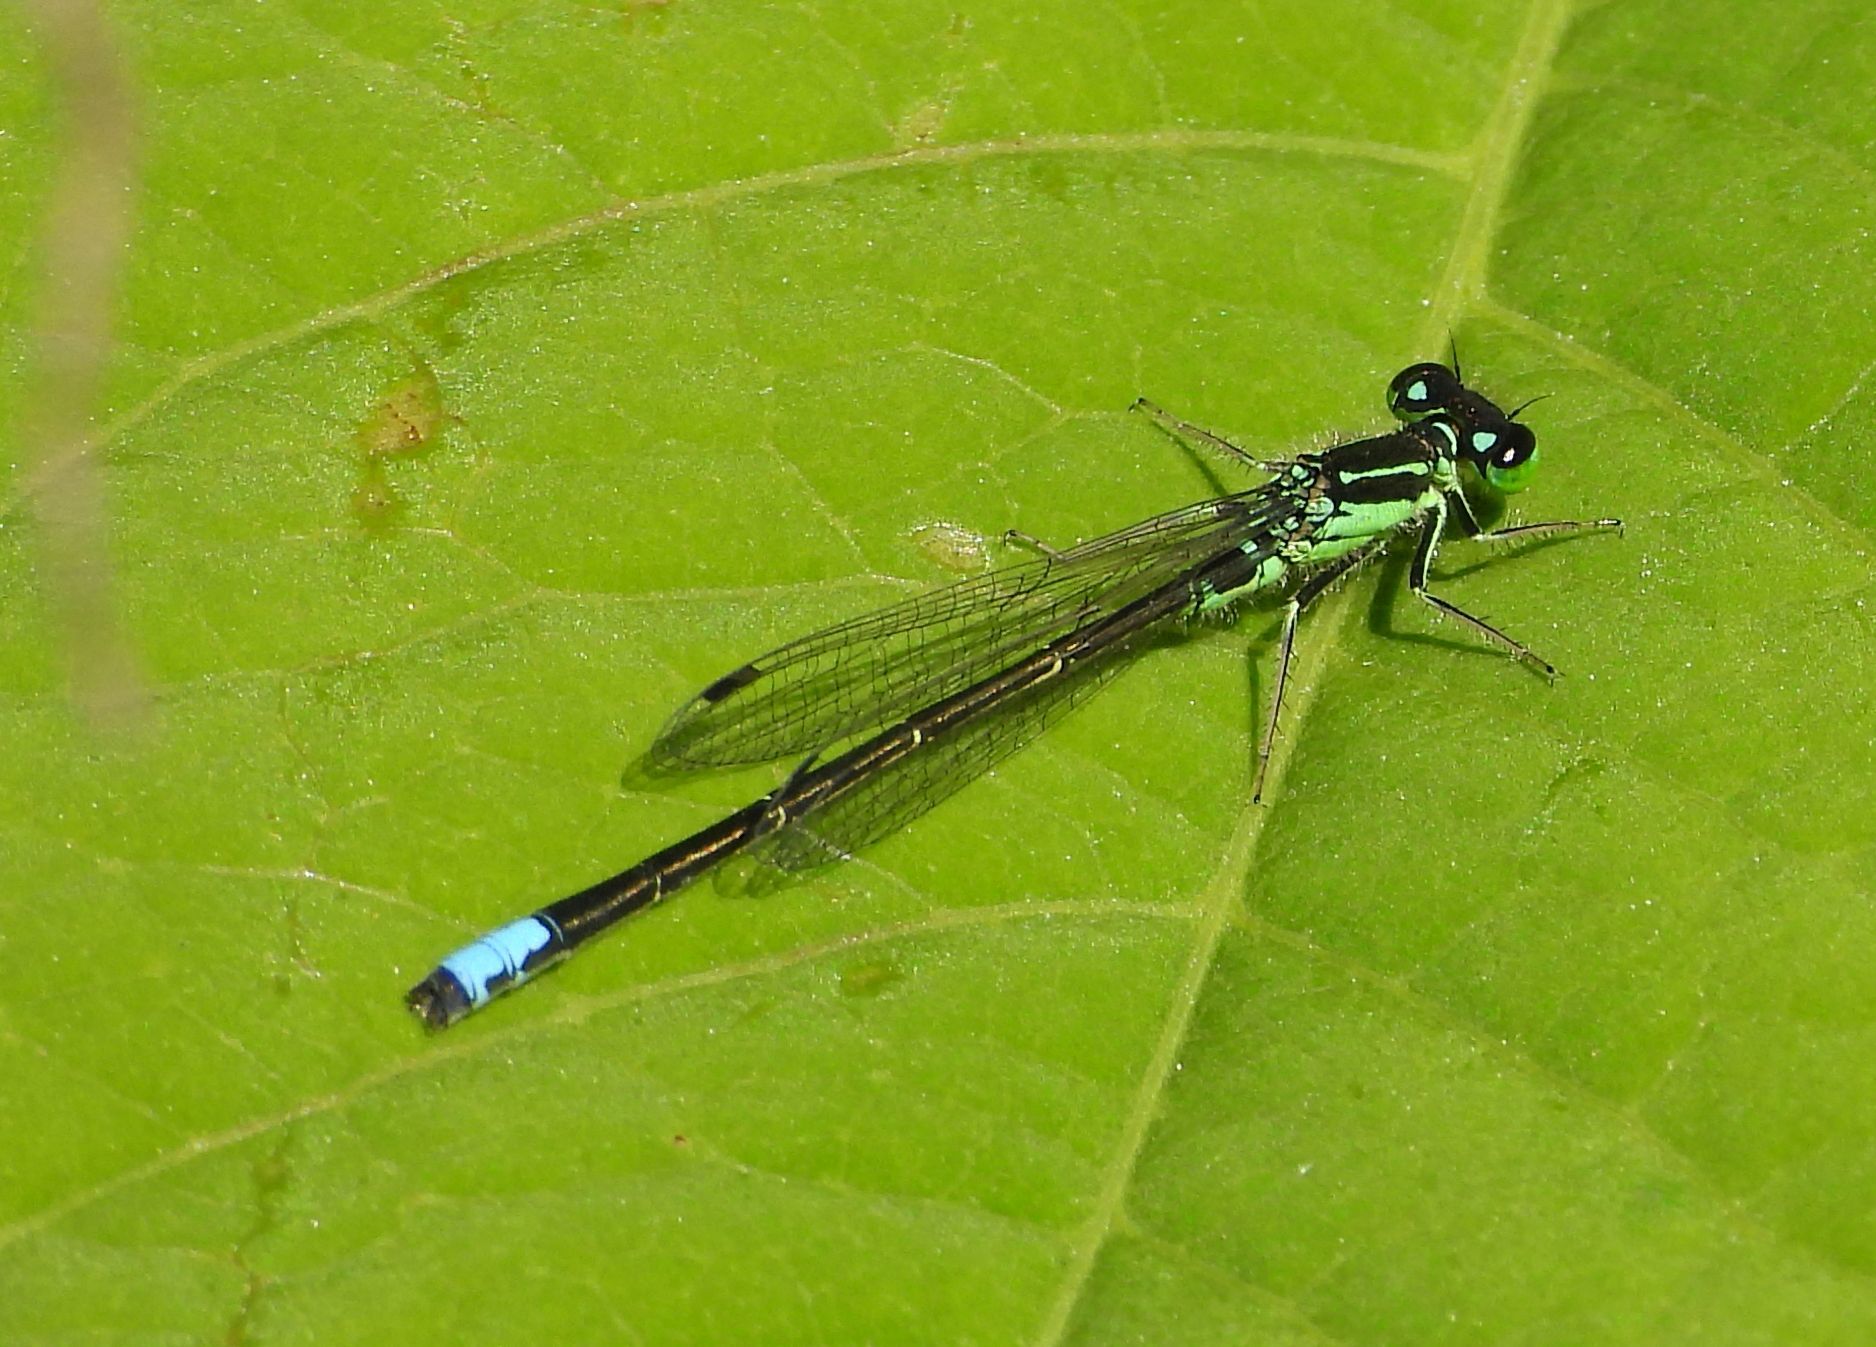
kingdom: Animalia
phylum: Arthropoda
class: Insecta
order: Odonata
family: Coenagrionidae
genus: Ischnura
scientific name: Ischnura verticalis
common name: Eastern forktail
